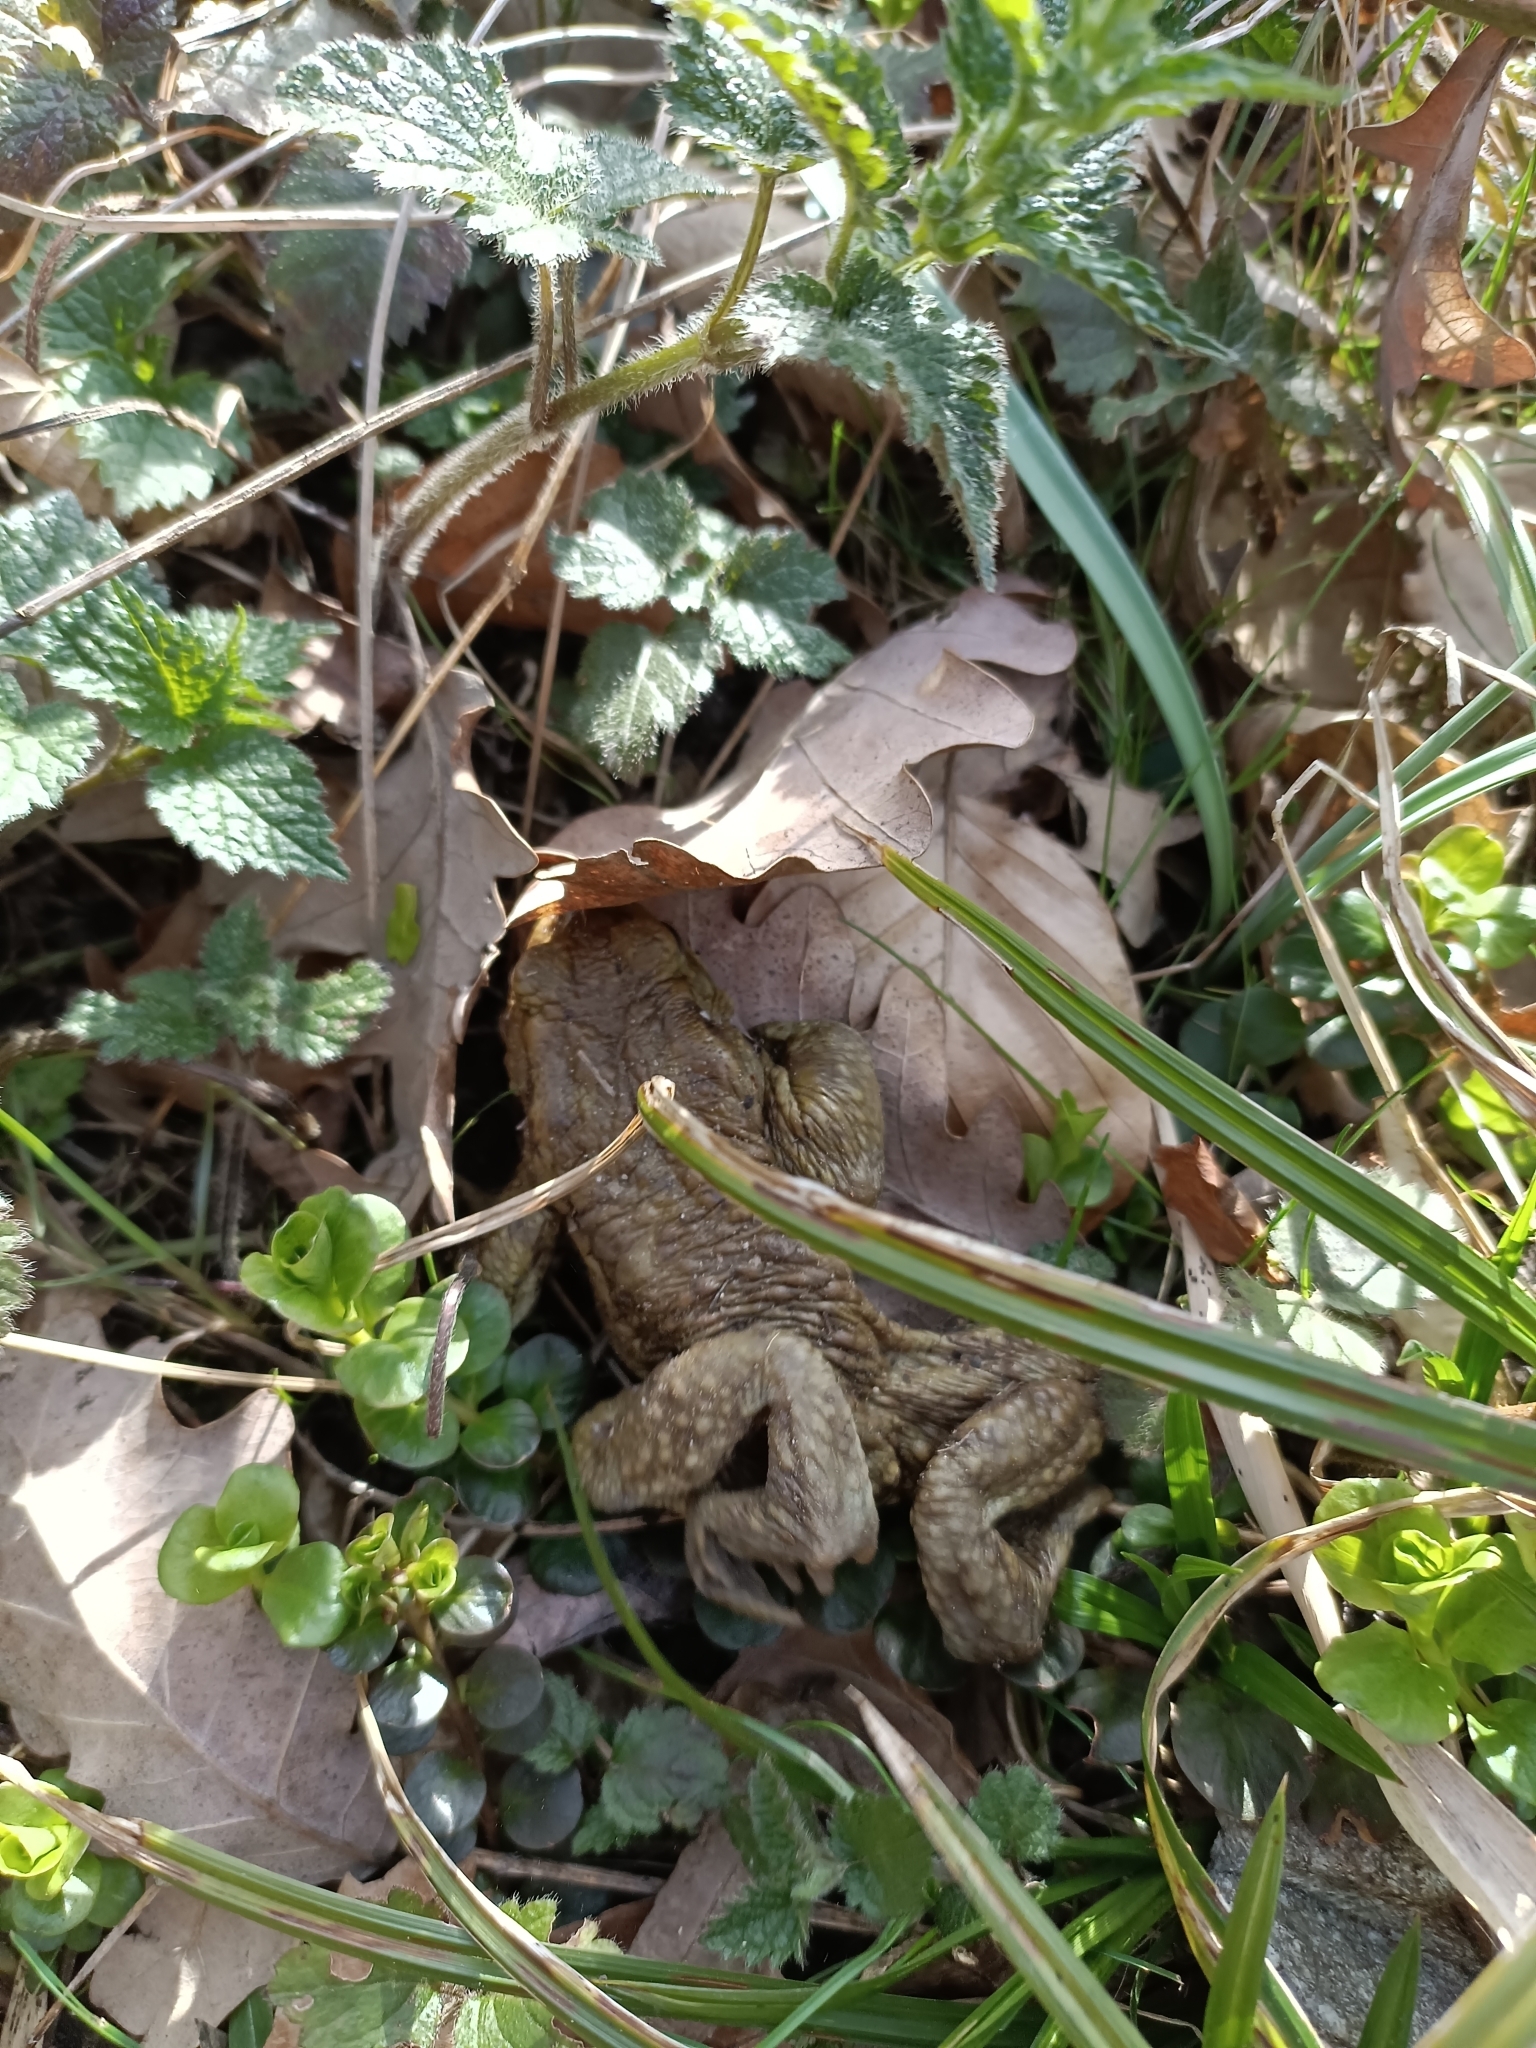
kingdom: Animalia
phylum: Chordata
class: Amphibia
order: Anura
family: Bufonidae
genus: Bufo
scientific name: Bufo bufo
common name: Common toad
